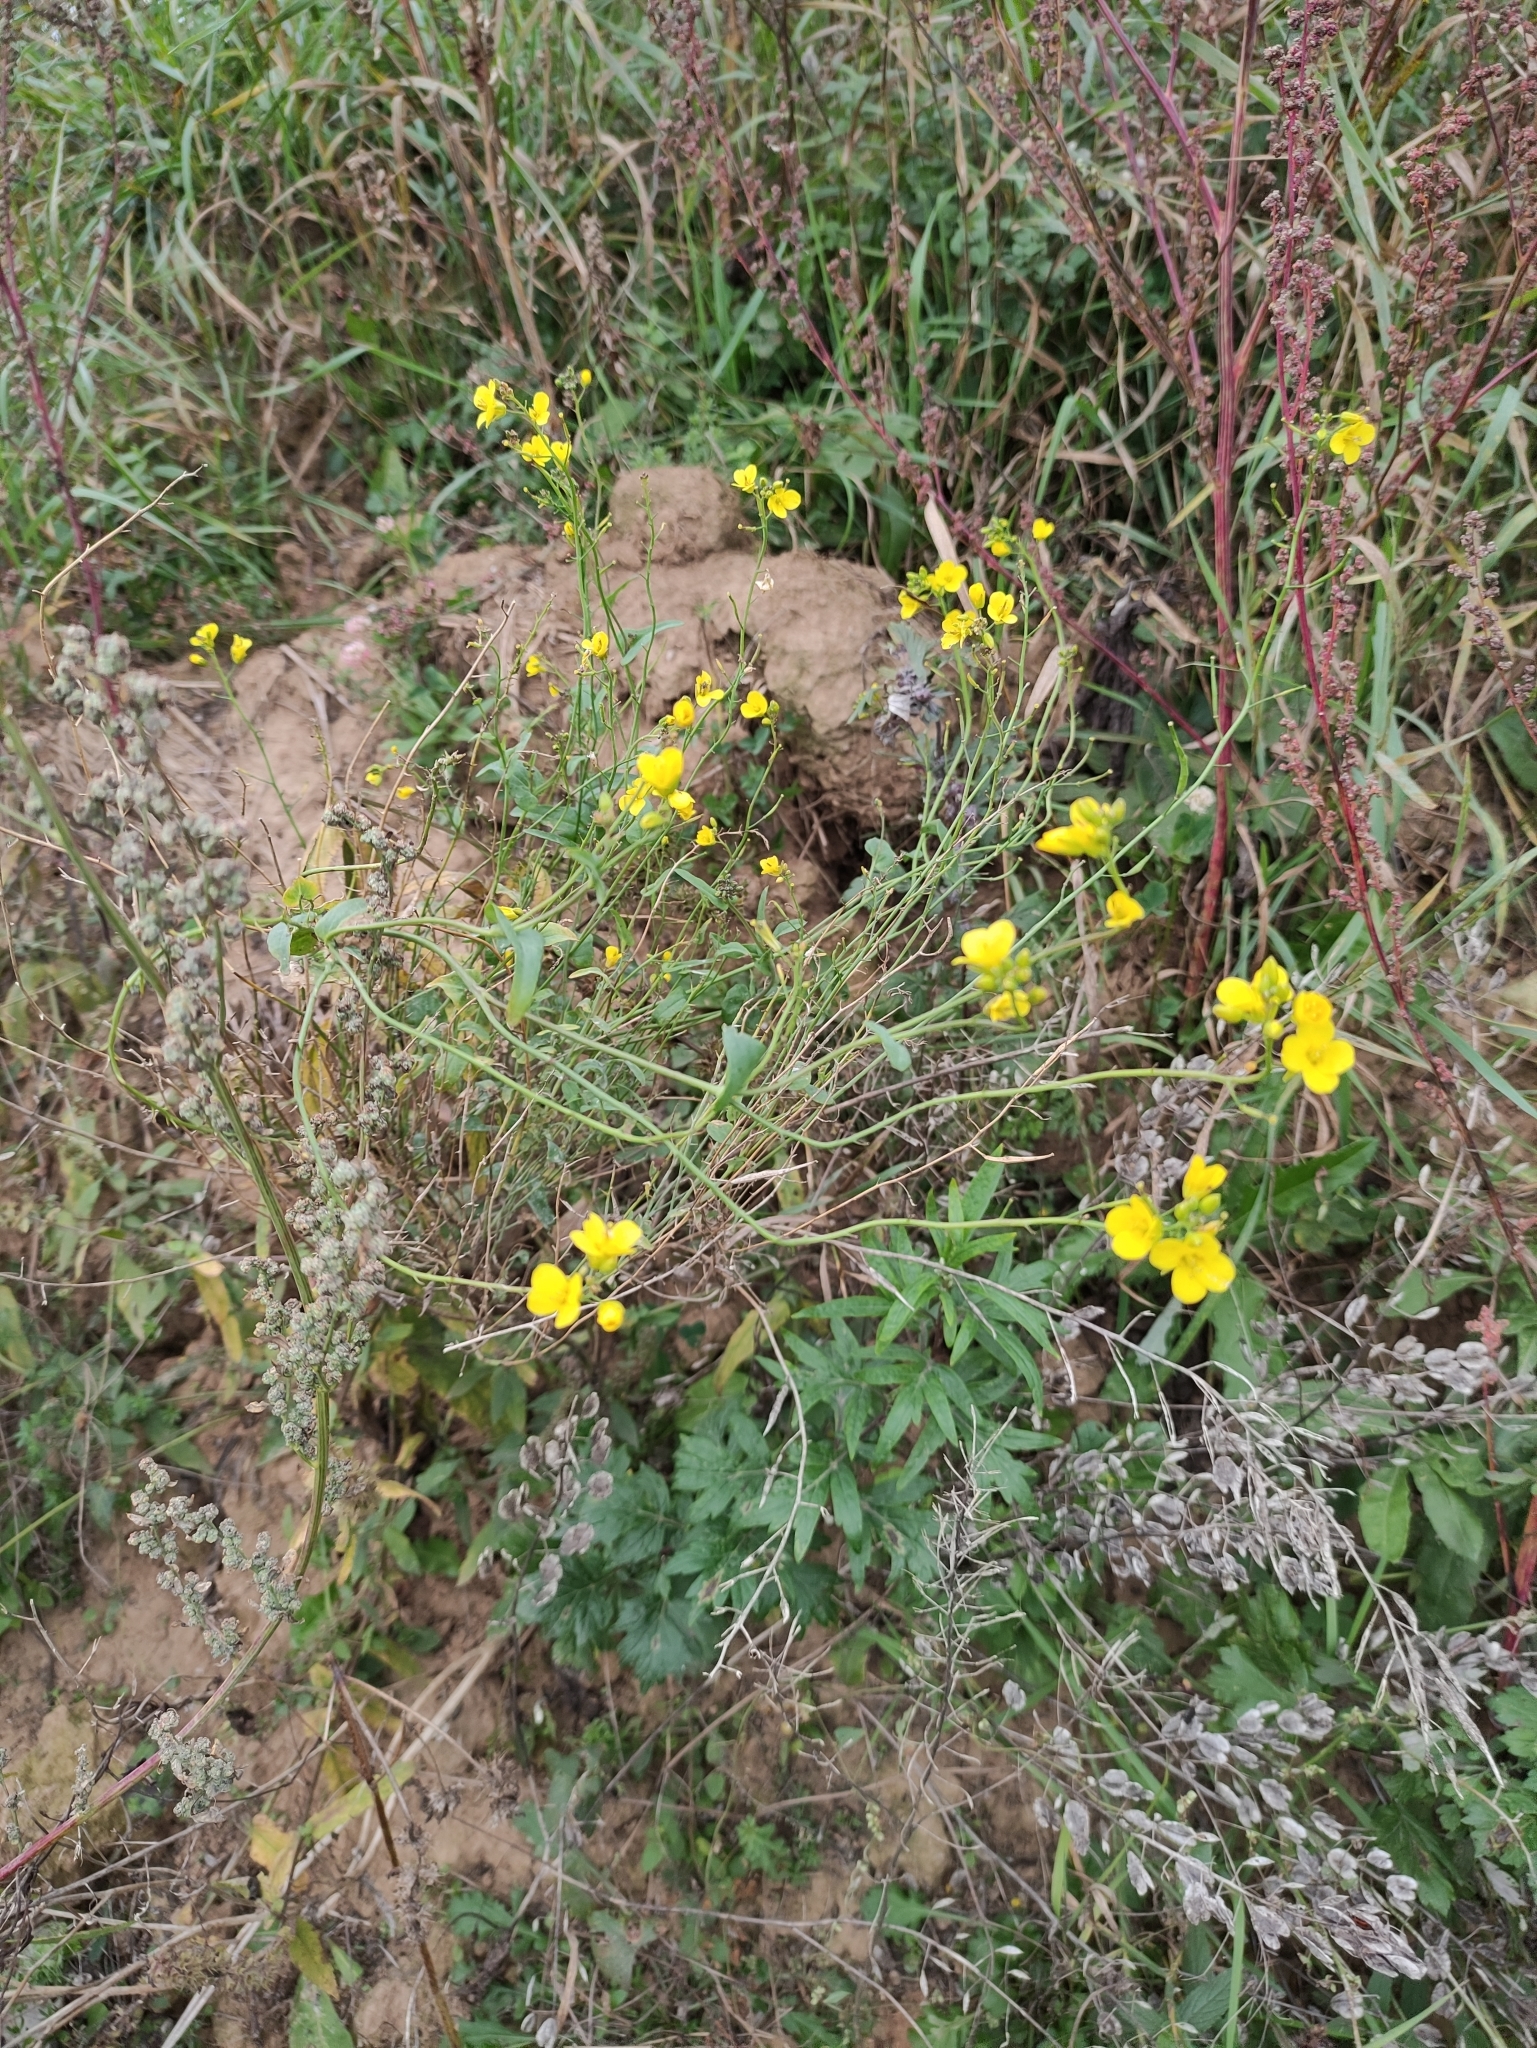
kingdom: Plantae
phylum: Tracheophyta
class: Magnoliopsida
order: Brassicales
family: Brassicaceae
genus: Brassica
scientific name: Brassica rapa
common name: Field mustard
